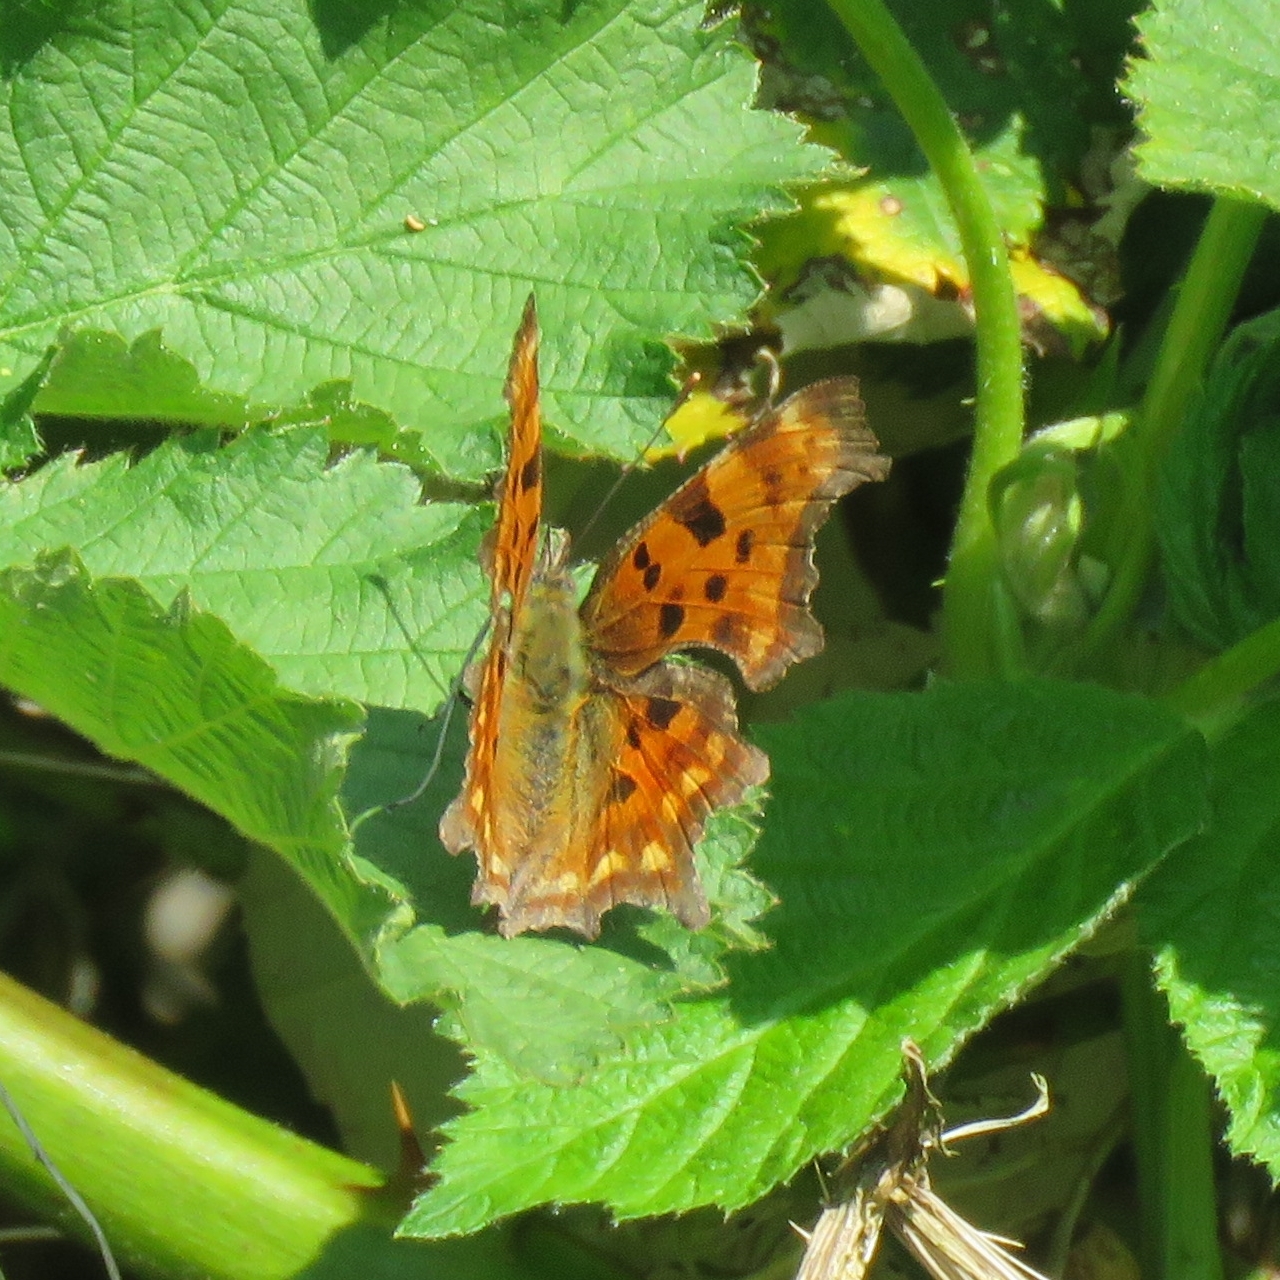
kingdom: Animalia
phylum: Arthropoda
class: Insecta
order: Lepidoptera
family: Nymphalidae
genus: Polygonia
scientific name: Polygonia c-album
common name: Comma
